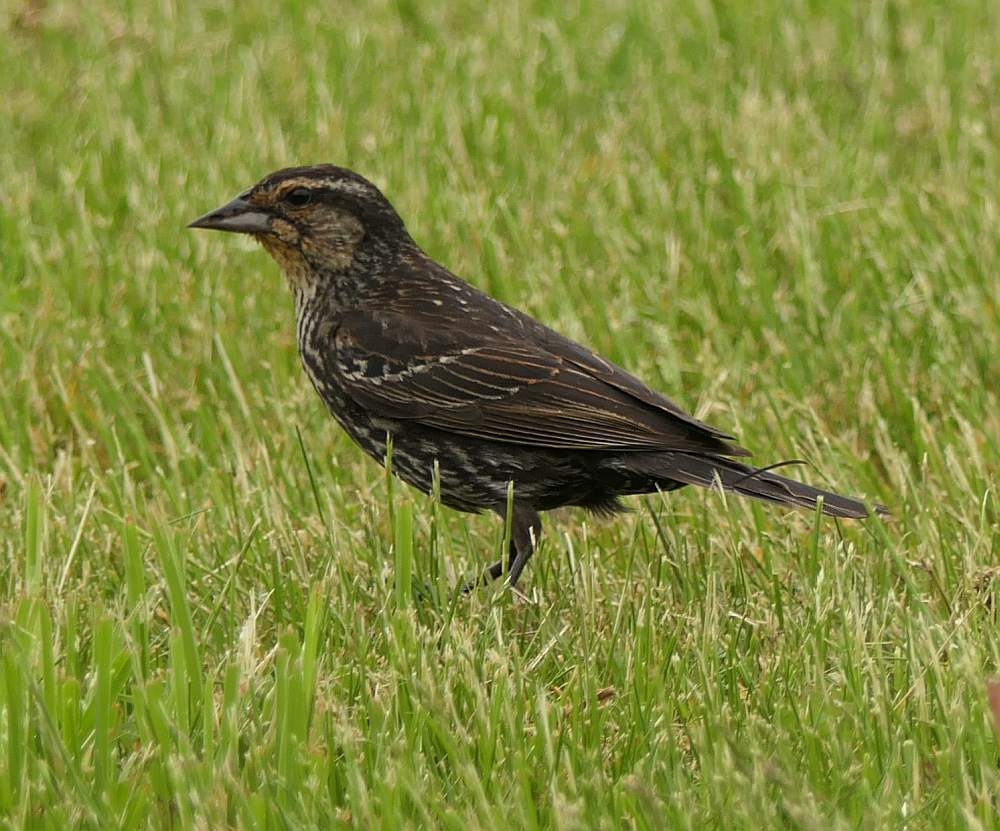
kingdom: Animalia
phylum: Chordata
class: Aves
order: Passeriformes
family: Icteridae
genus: Agelaius
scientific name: Agelaius phoeniceus
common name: Red-winged blackbird
